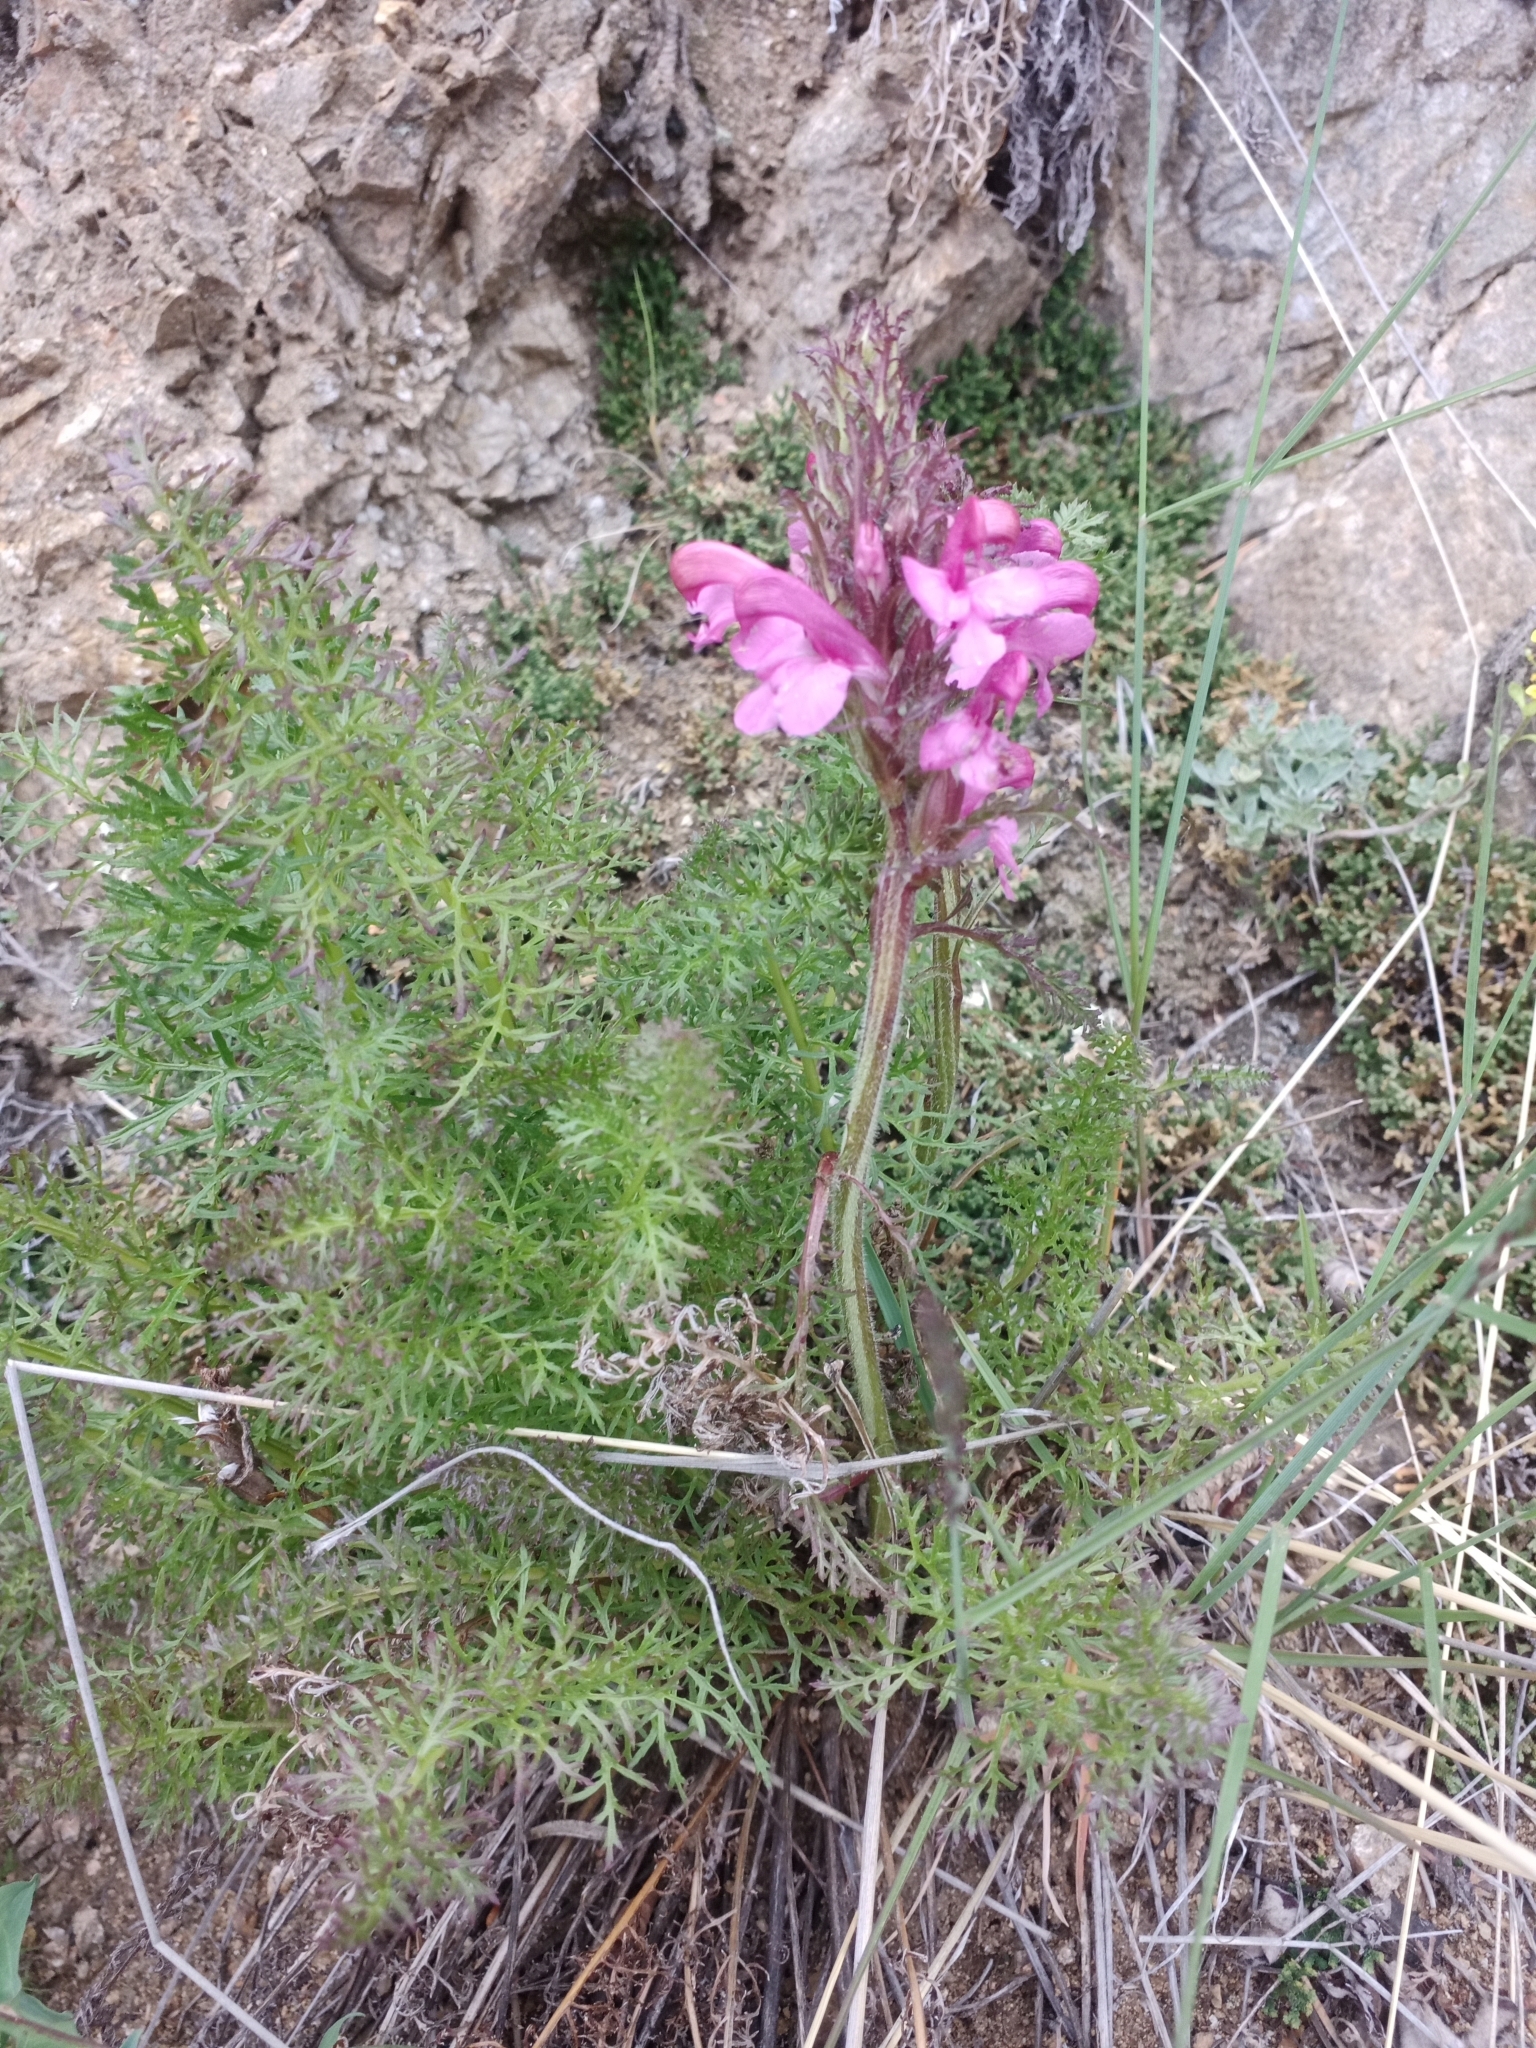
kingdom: Plantae
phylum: Tracheophyta
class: Magnoliopsida
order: Lamiales
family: Orobanchaceae
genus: Pedicularis
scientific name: Pedicularis rubens
